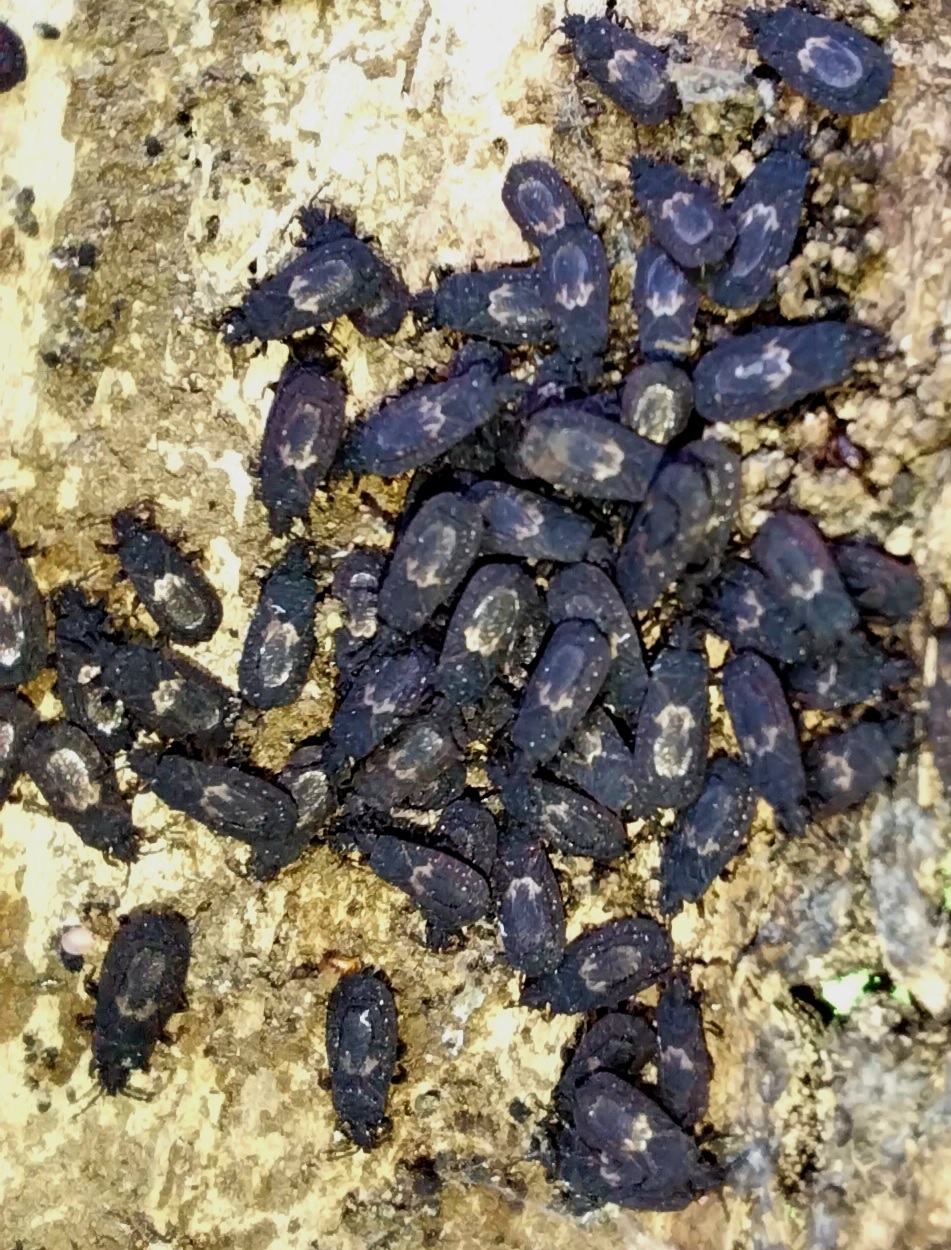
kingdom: Animalia
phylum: Arthropoda
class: Insecta
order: Hemiptera
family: Aradidae
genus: Brachyrhynchus
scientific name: Brachyrhynchus membranaceus
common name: Aradid flat bug
